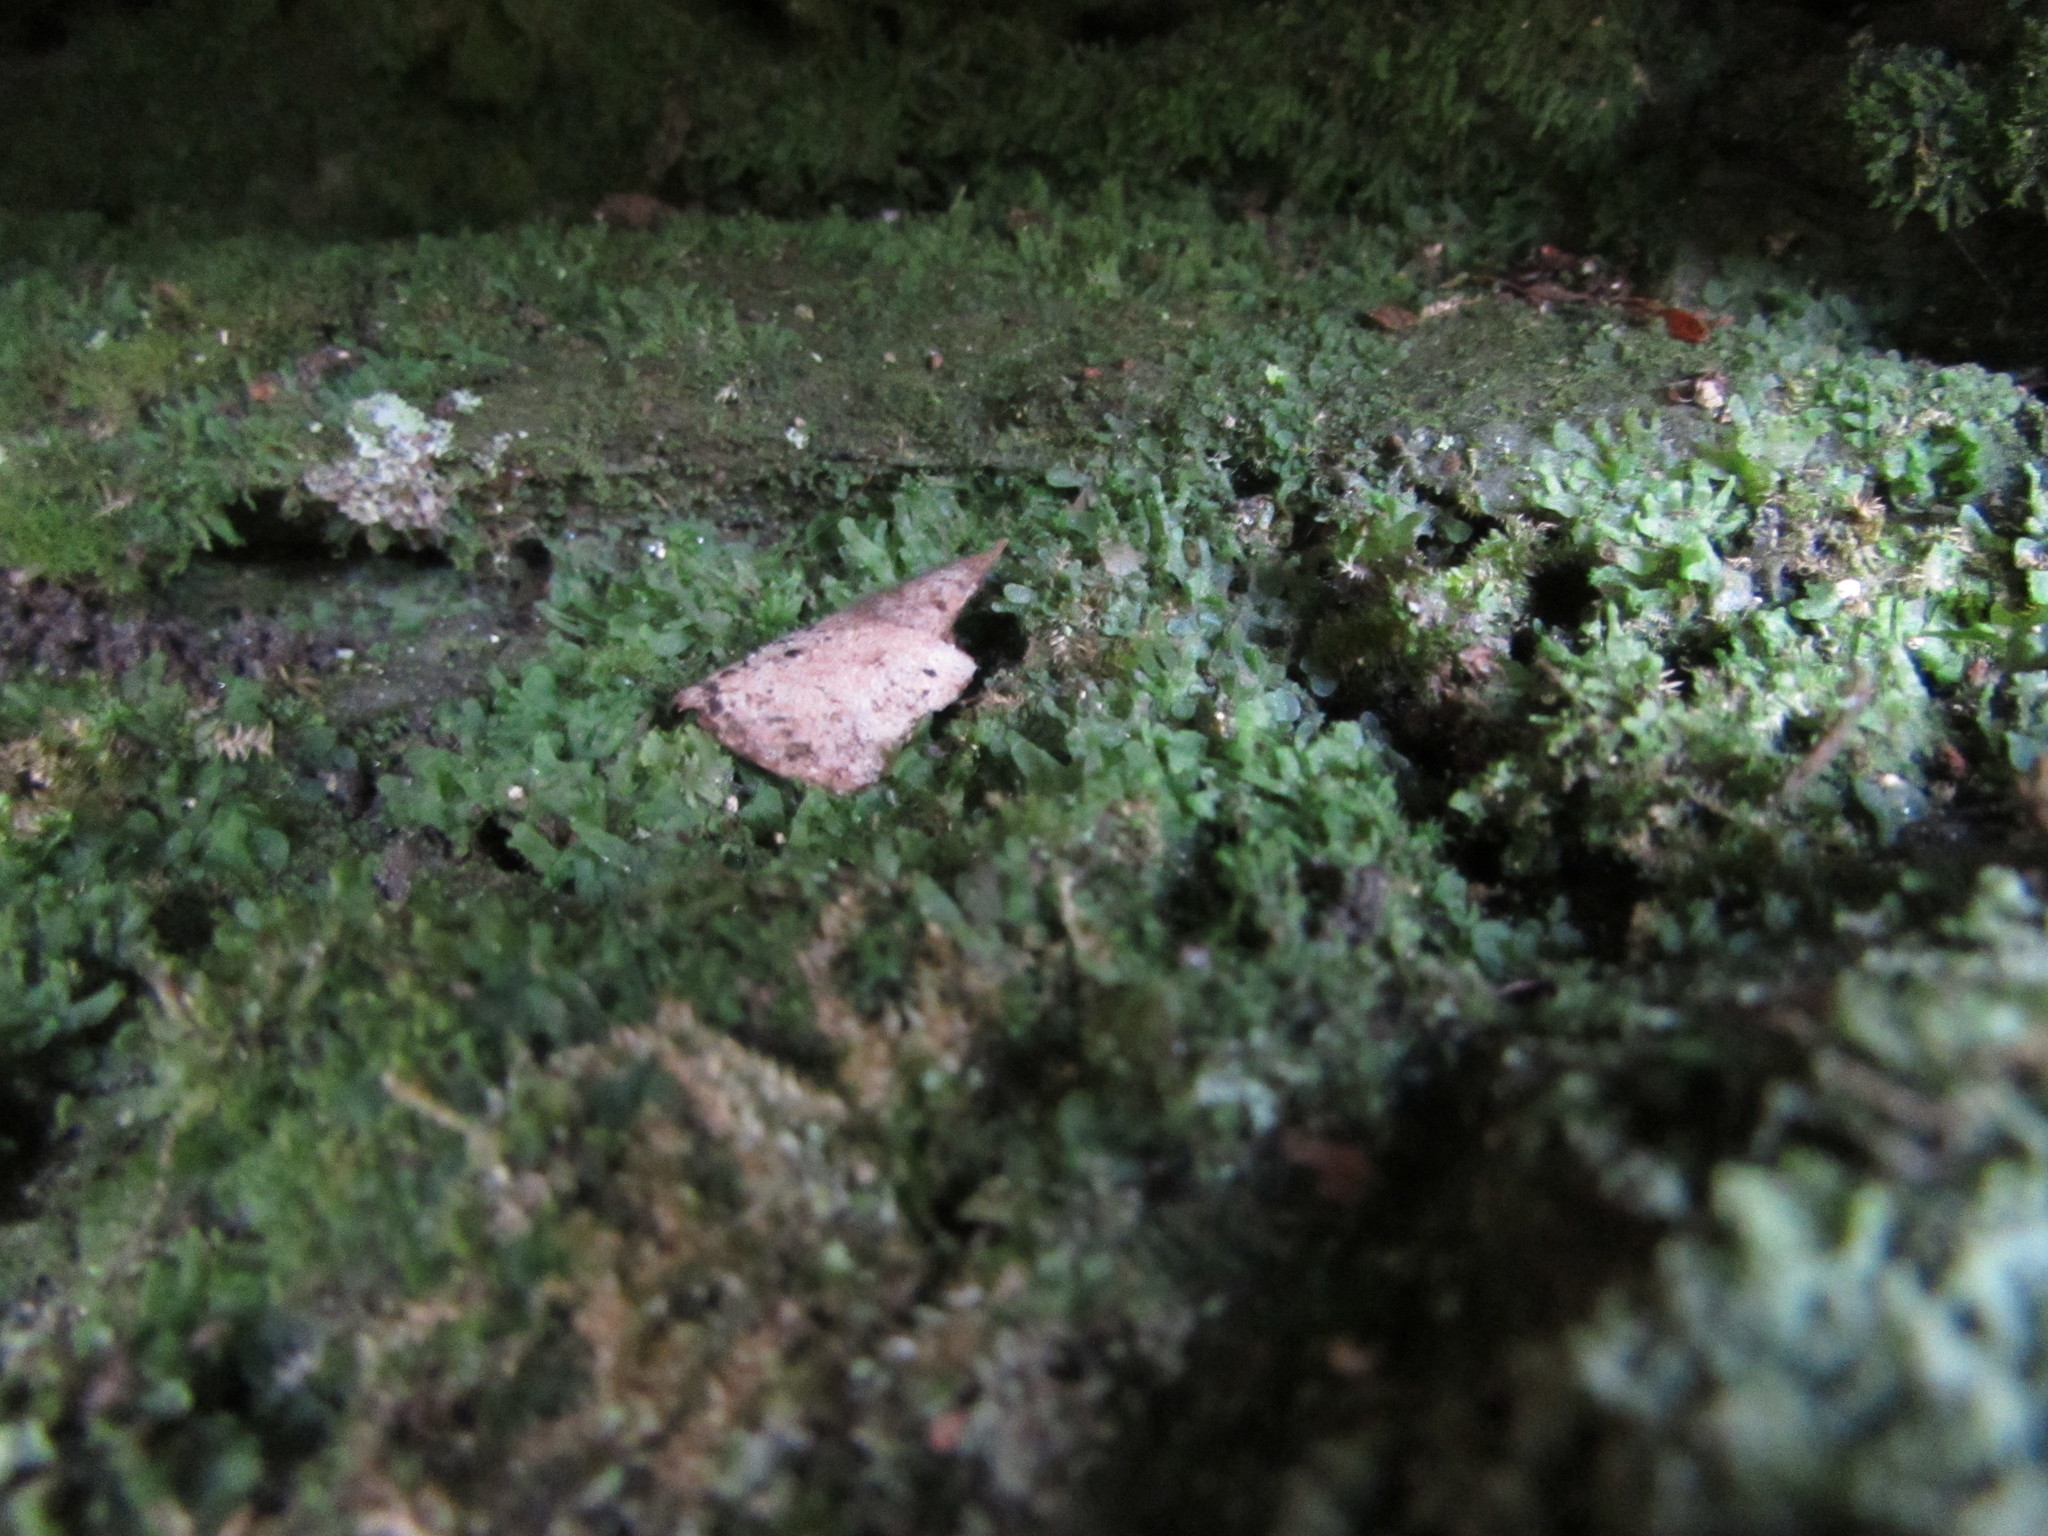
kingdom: Plantae
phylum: Tracheophyta
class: Polypodiopsida
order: Polypodiales
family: Pteridaceae
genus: Vittaria
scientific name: Vittaria appalachiana
